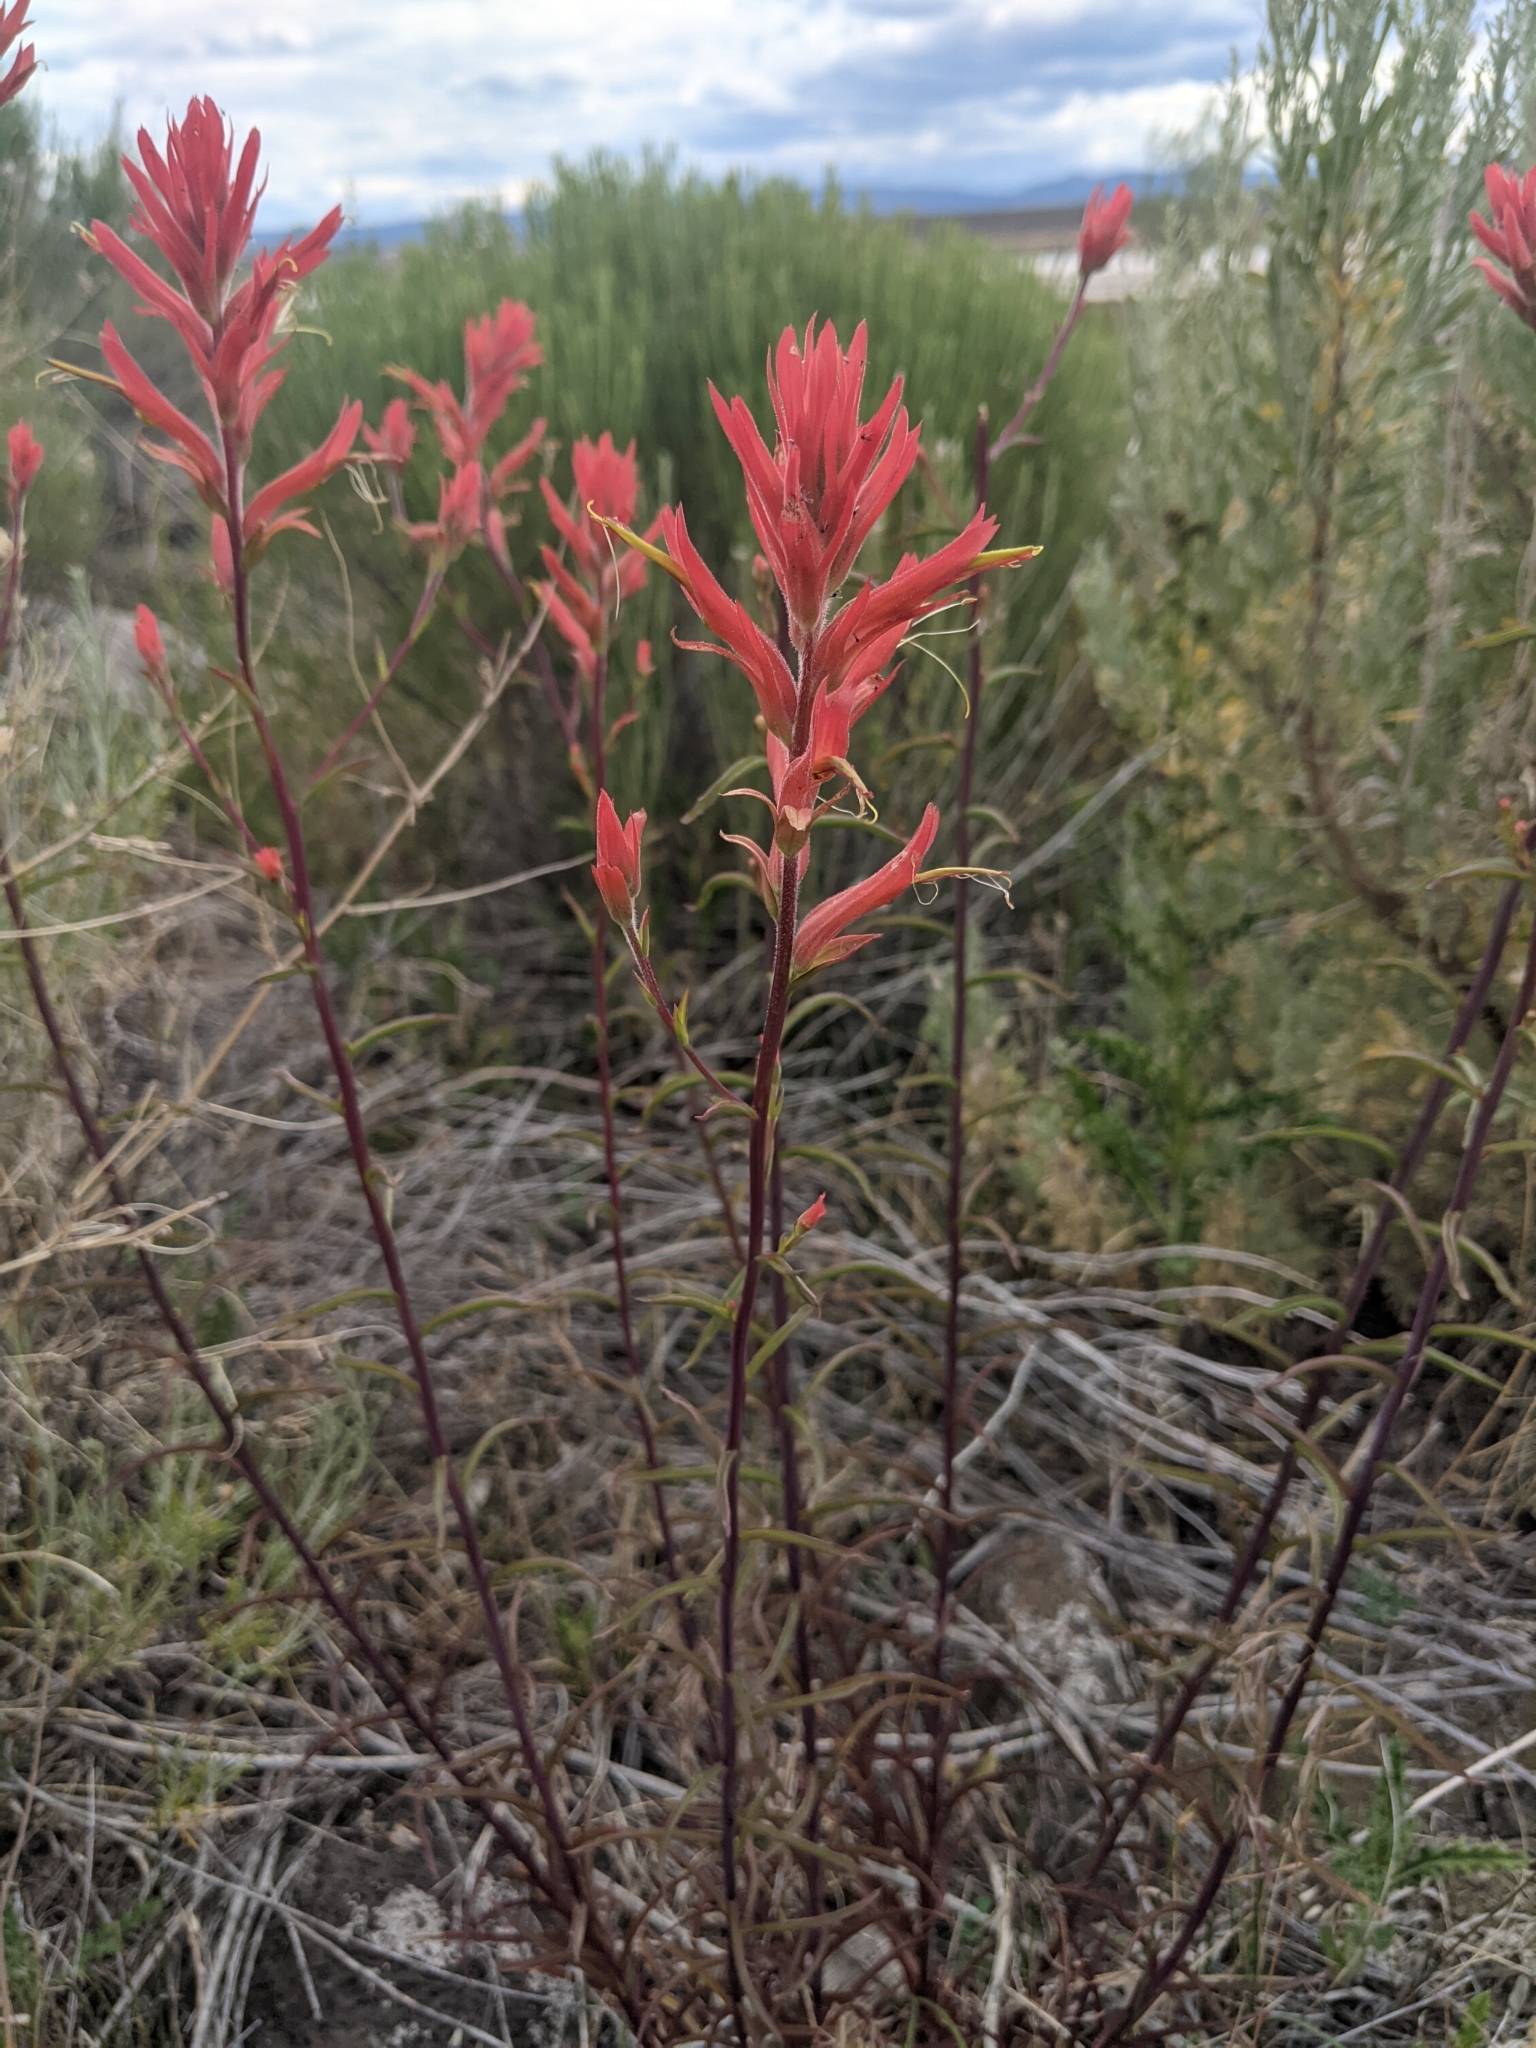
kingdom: Plantae
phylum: Tracheophyta
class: Magnoliopsida
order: Lamiales
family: Orobanchaceae
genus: Castilleja
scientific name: Castilleja linariifolia
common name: Wyoming paintbrush
